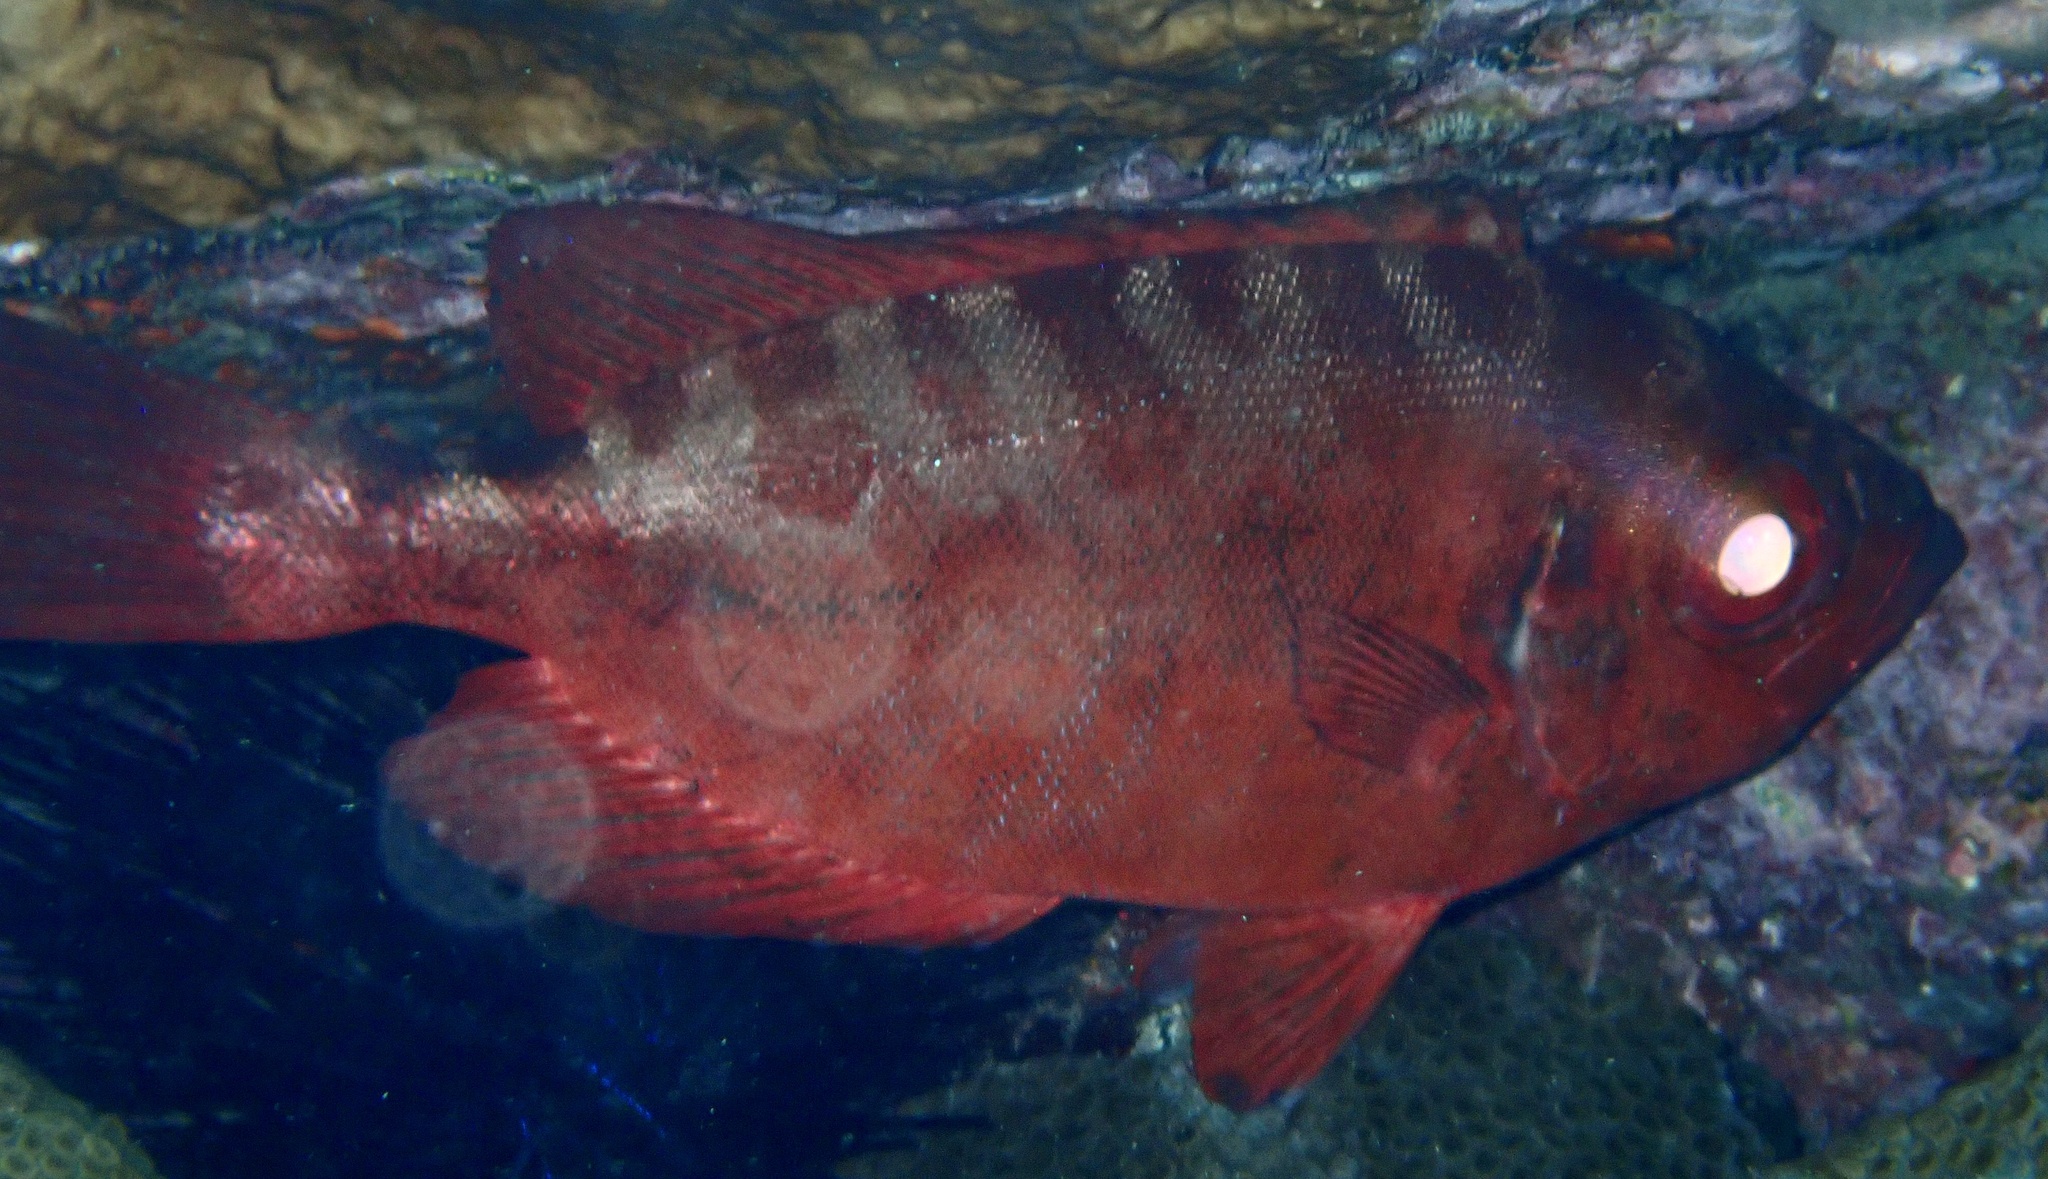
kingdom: Animalia
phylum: Chordata
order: Perciformes
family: Priacanthidae
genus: Heteropriacanthus
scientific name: Heteropriacanthus fulgens
